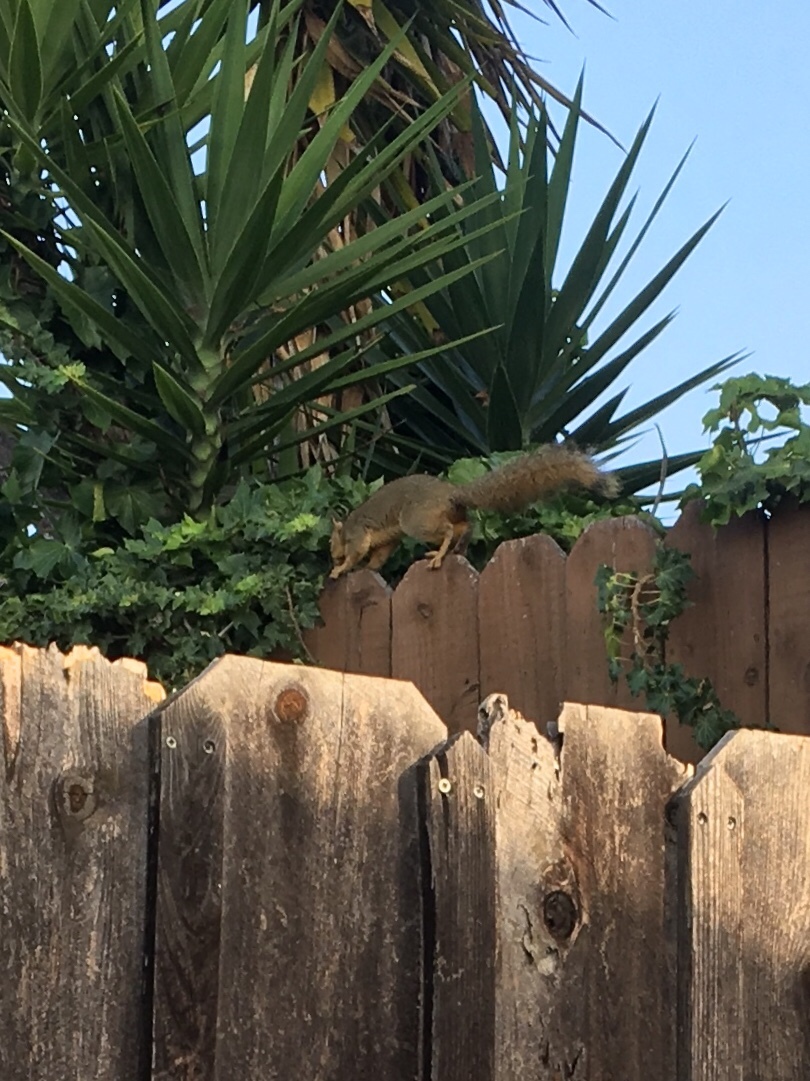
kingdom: Animalia
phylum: Chordata
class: Mammalia
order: Rodentia
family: Sciuridae
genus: Sciurus
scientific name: Sciurus niger
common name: Fox squirrel
